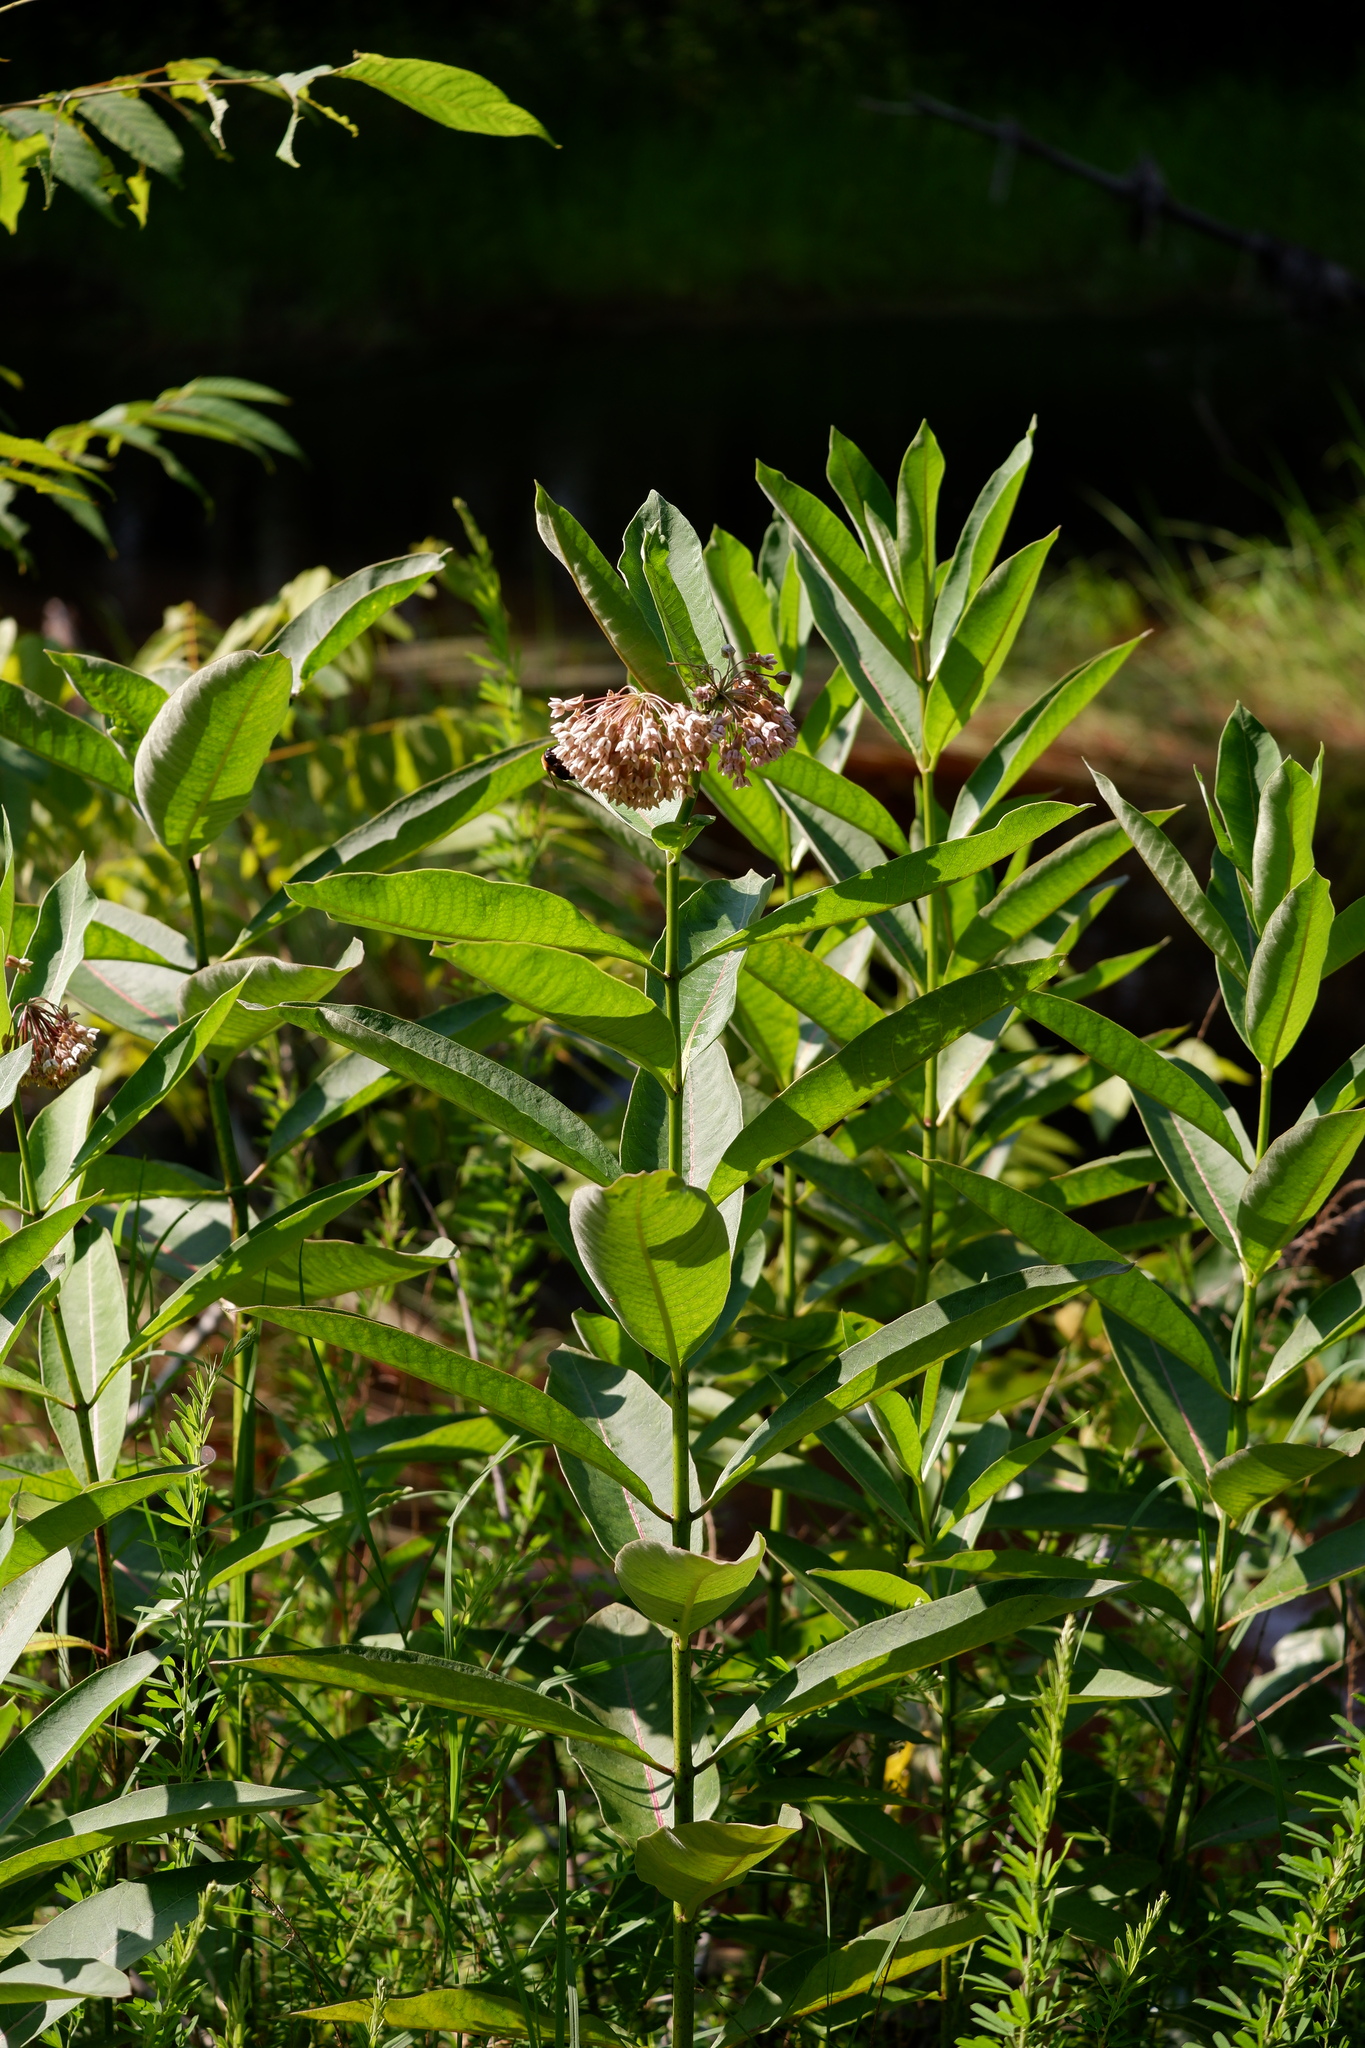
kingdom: Plantae
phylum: Tracheophyta
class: Magnoliopsida
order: Gentianales
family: Apocynaceae
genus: Asclepias
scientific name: Asclepias syriaca
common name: Common milkweed
